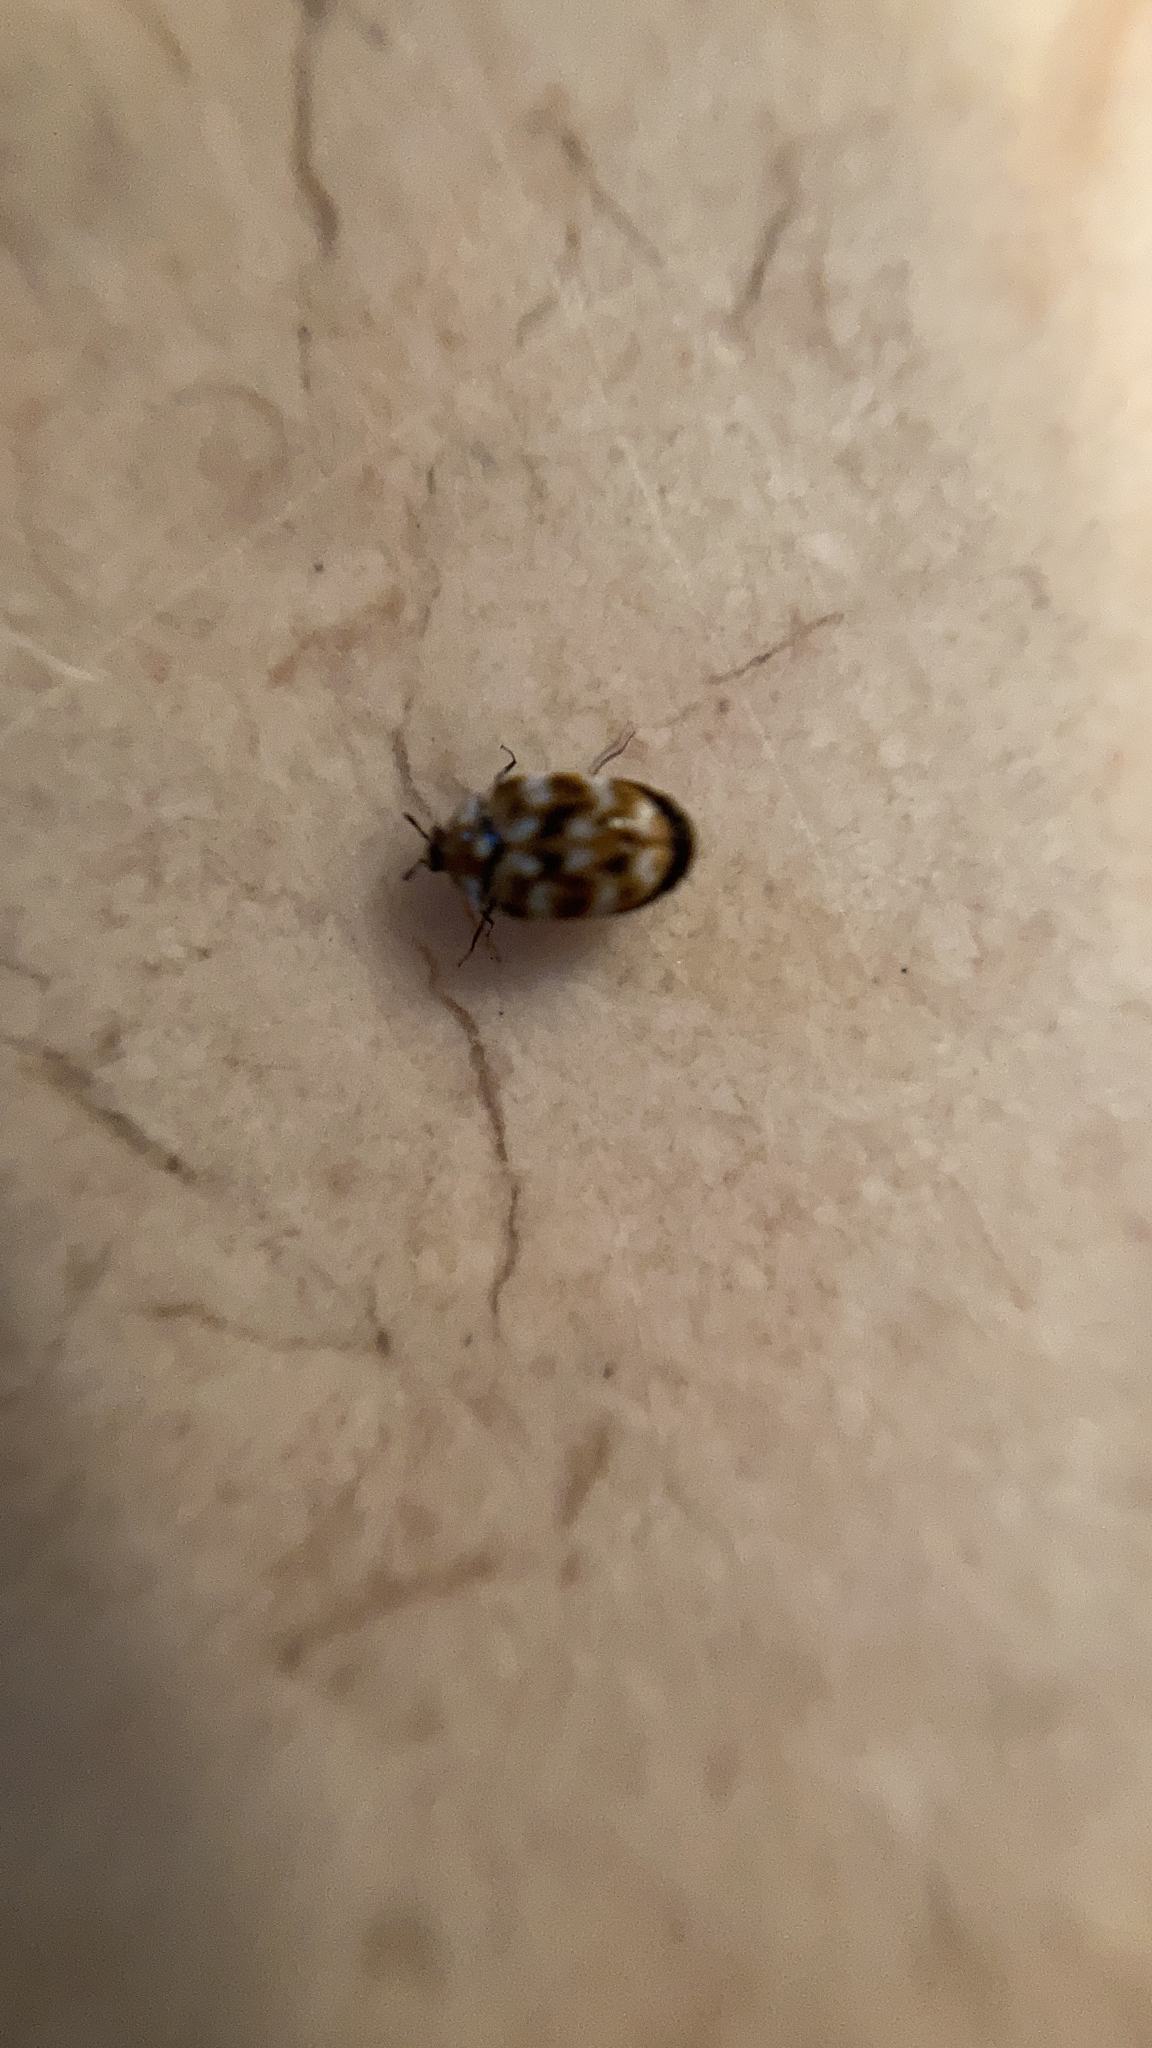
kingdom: Animalia
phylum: Arthropoda
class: Insecta
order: Coleoptera
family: Dermestidae
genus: Anthrenus
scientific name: Anthrenus verbasci
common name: Varied carpet beetle
